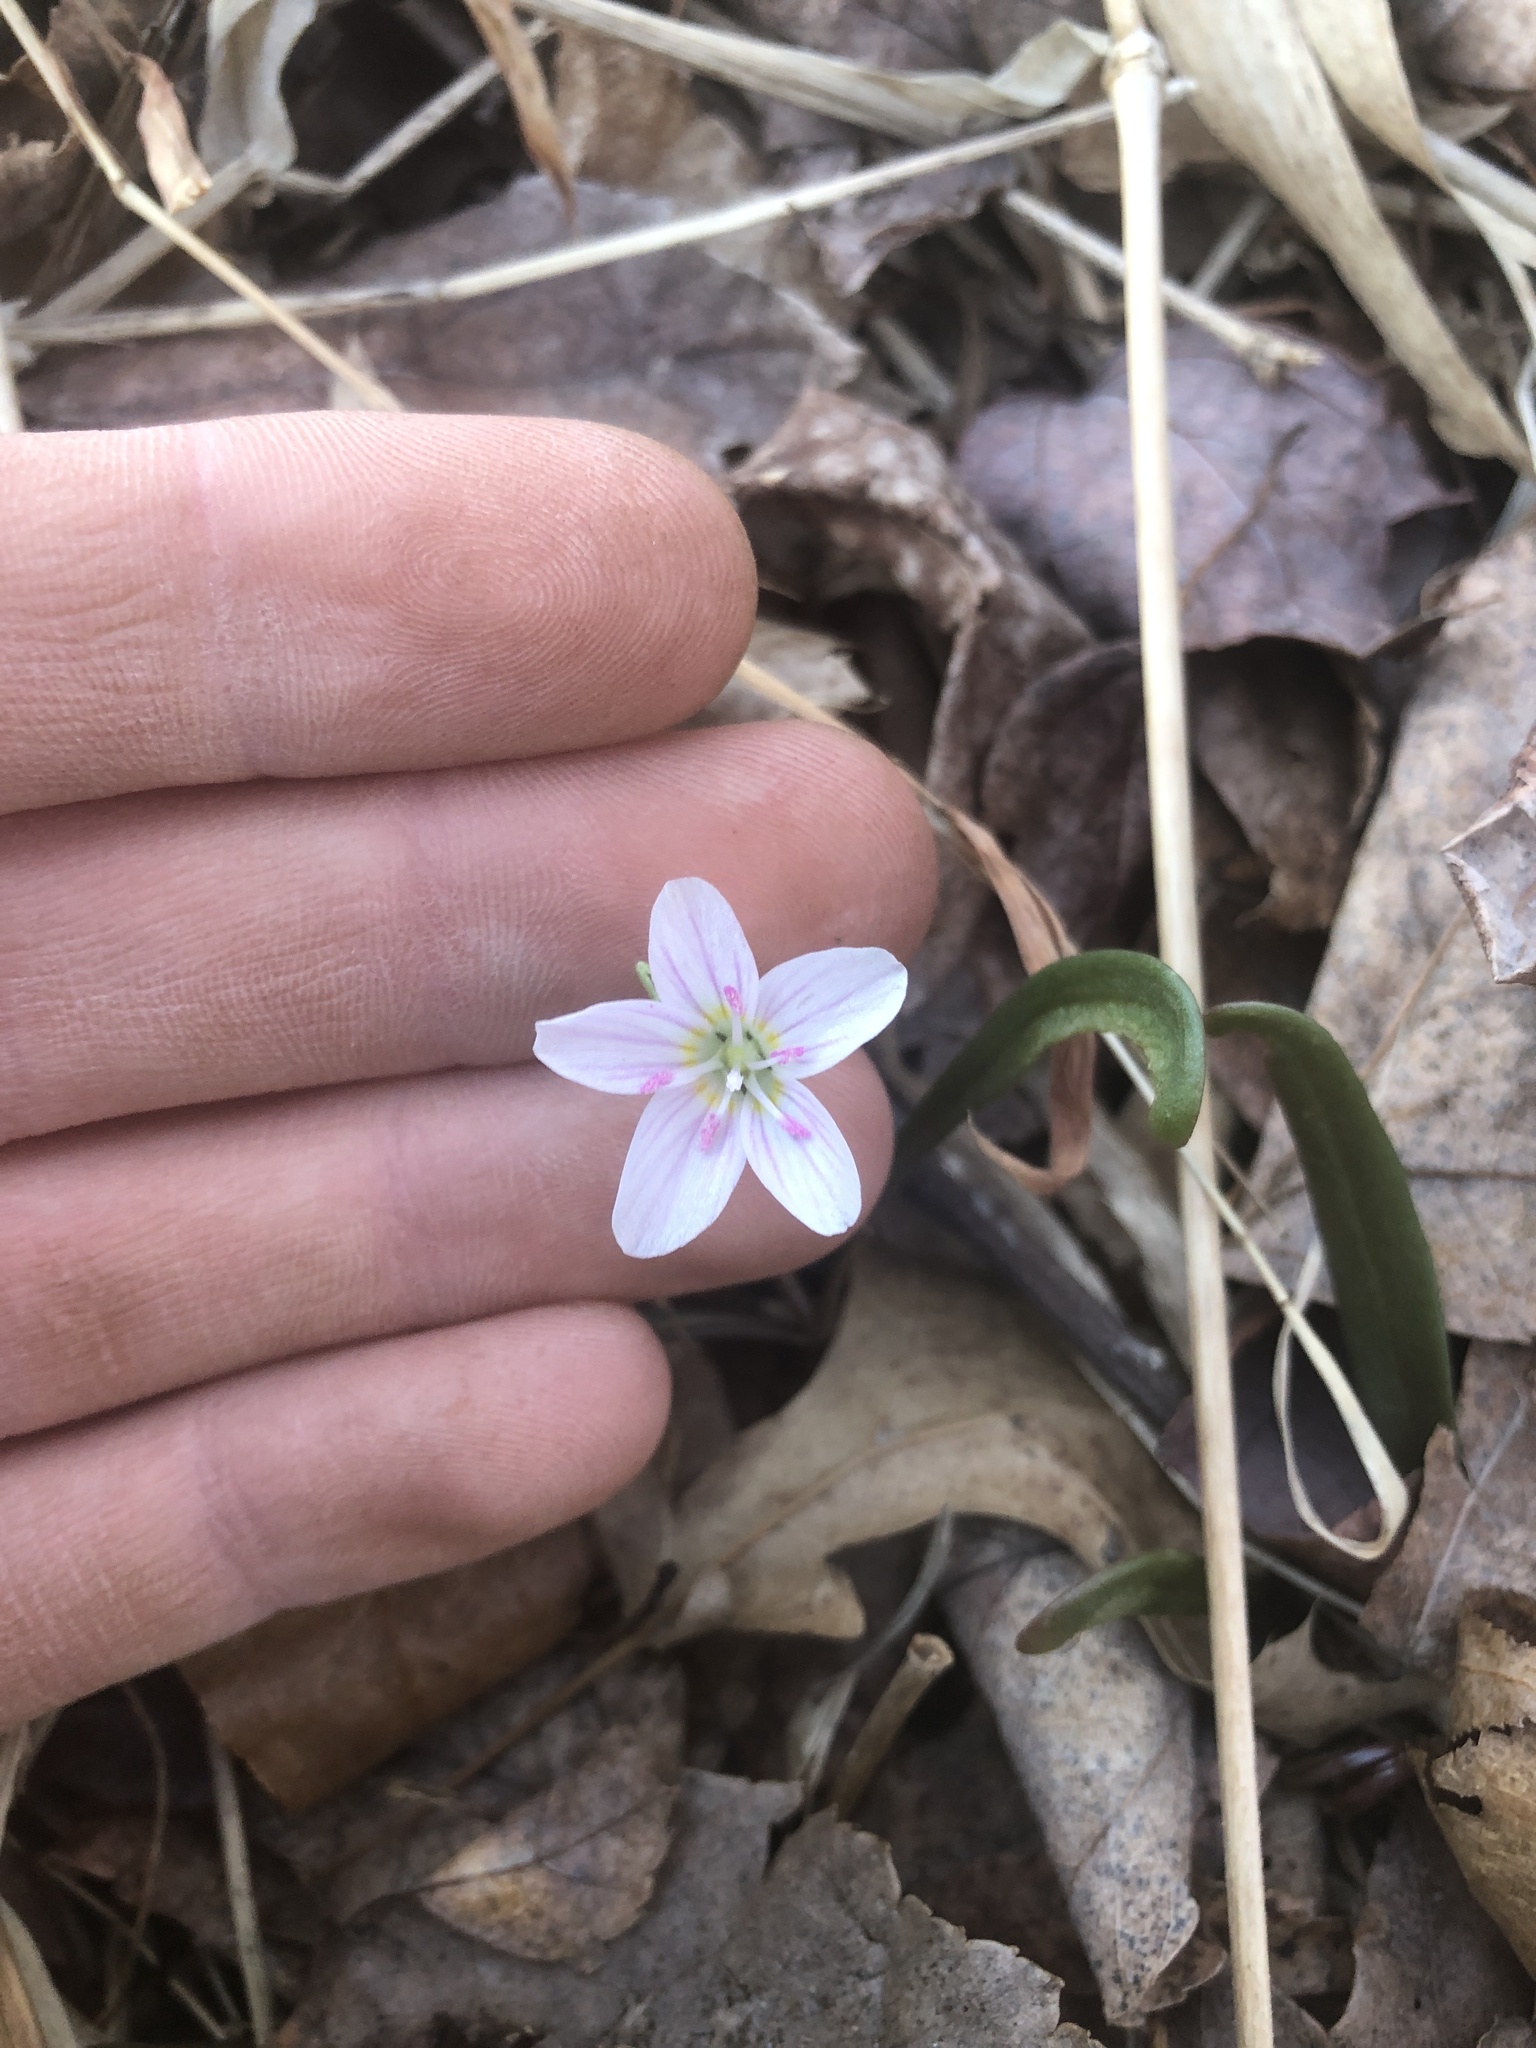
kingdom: Plantae
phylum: Tracheophyta
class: Magnoliopsida
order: Caryophyllales
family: Montiaceae
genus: Claytonia
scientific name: Claytonia virginica
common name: Virginia springbeauty
